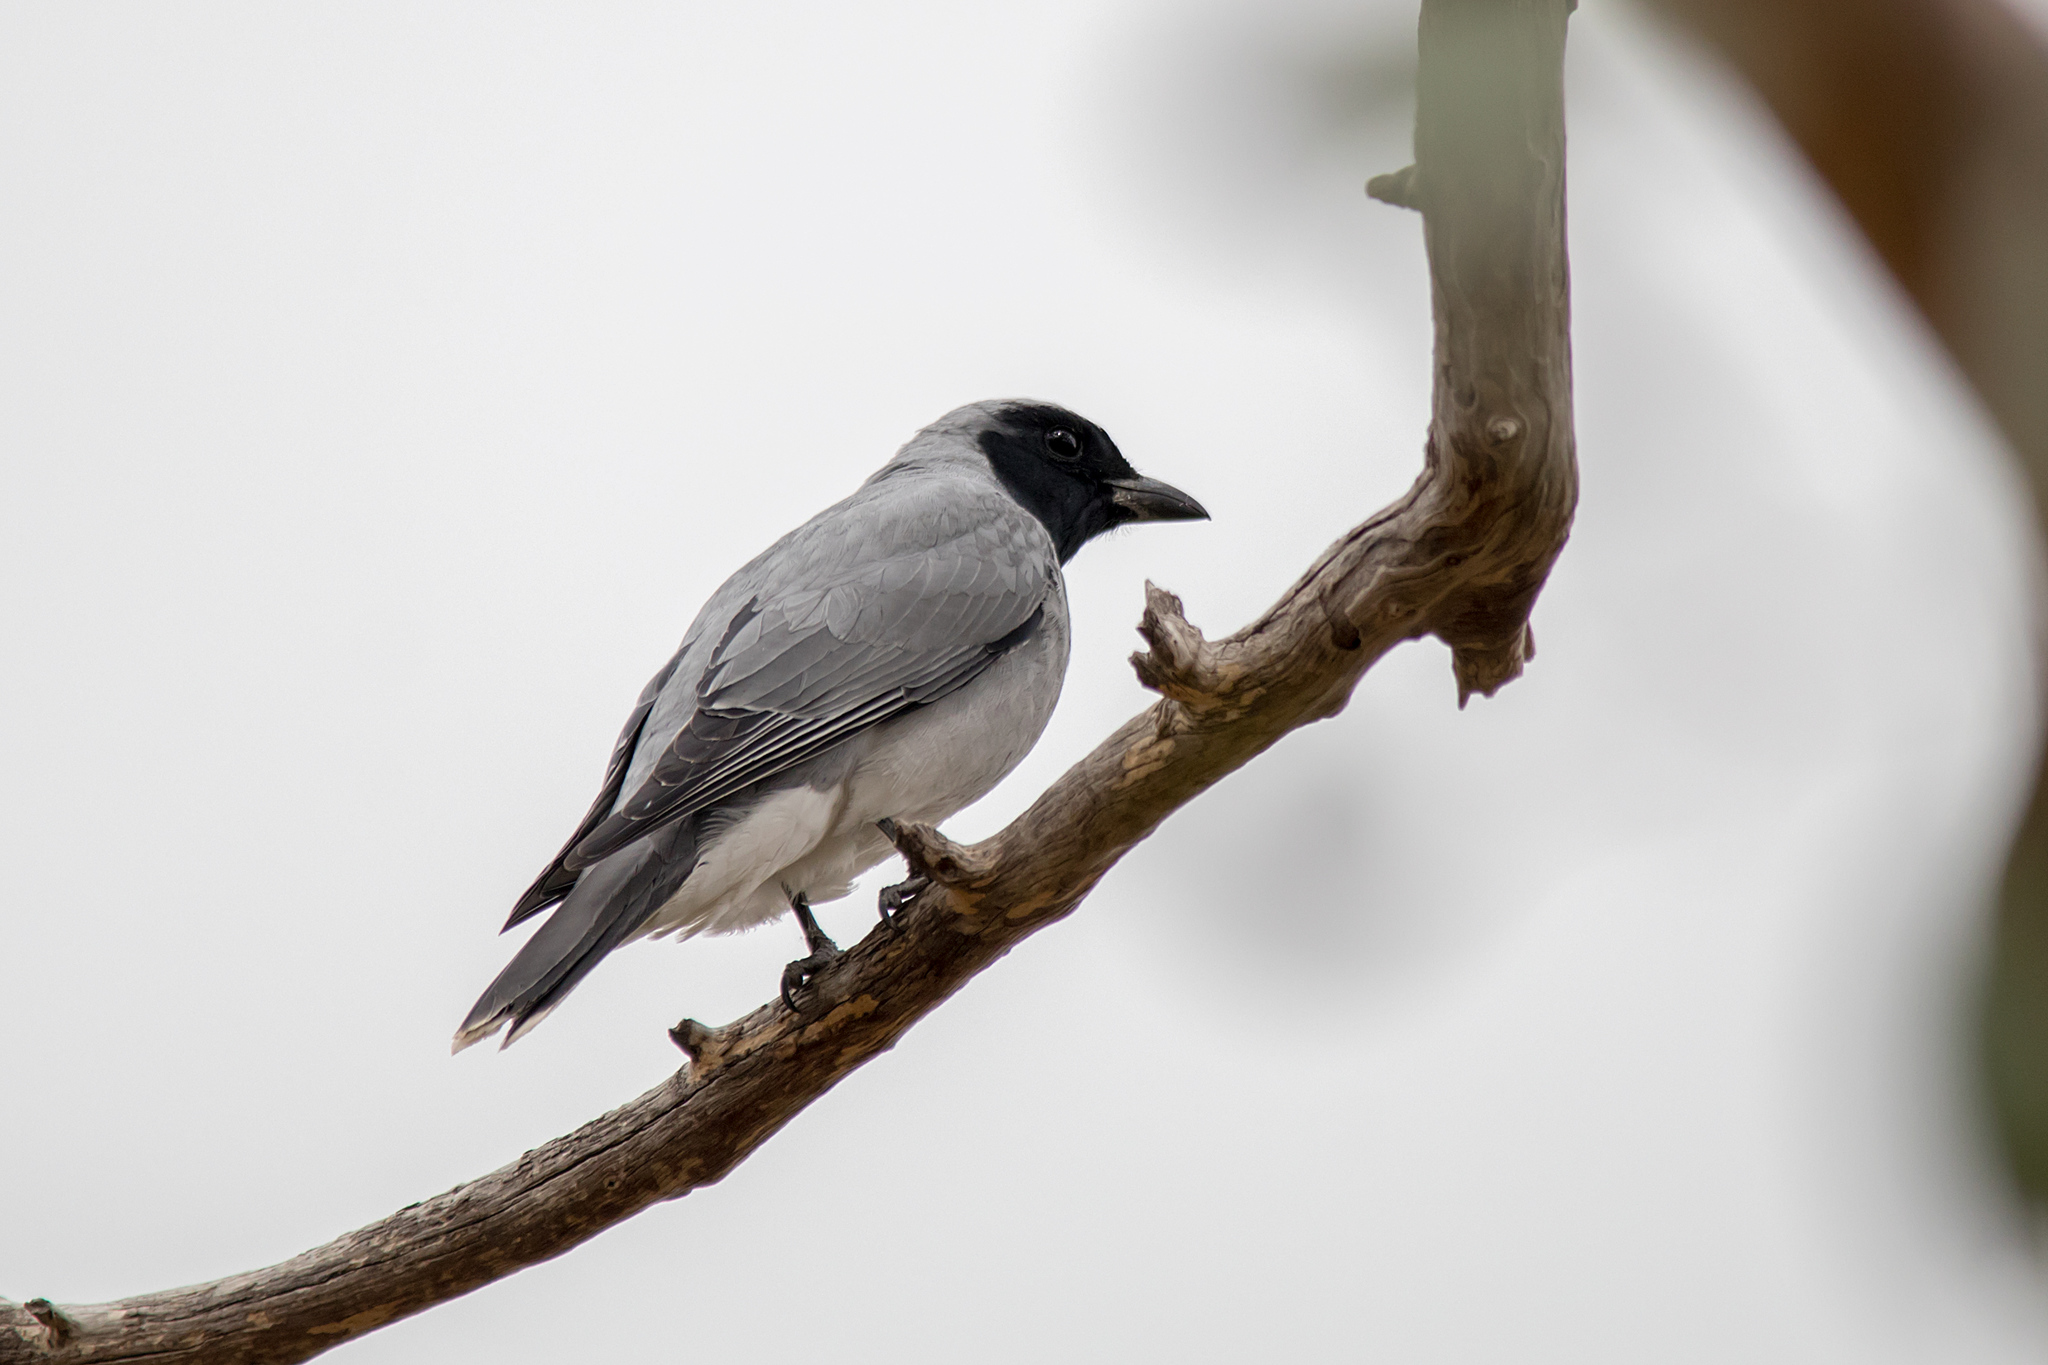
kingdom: Animalia
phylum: Chordata
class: Aves
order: Passeriformes
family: Campephagidae
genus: Coracina
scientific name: Coracina novaehollandiae
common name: Black-faced cuckooshrike
